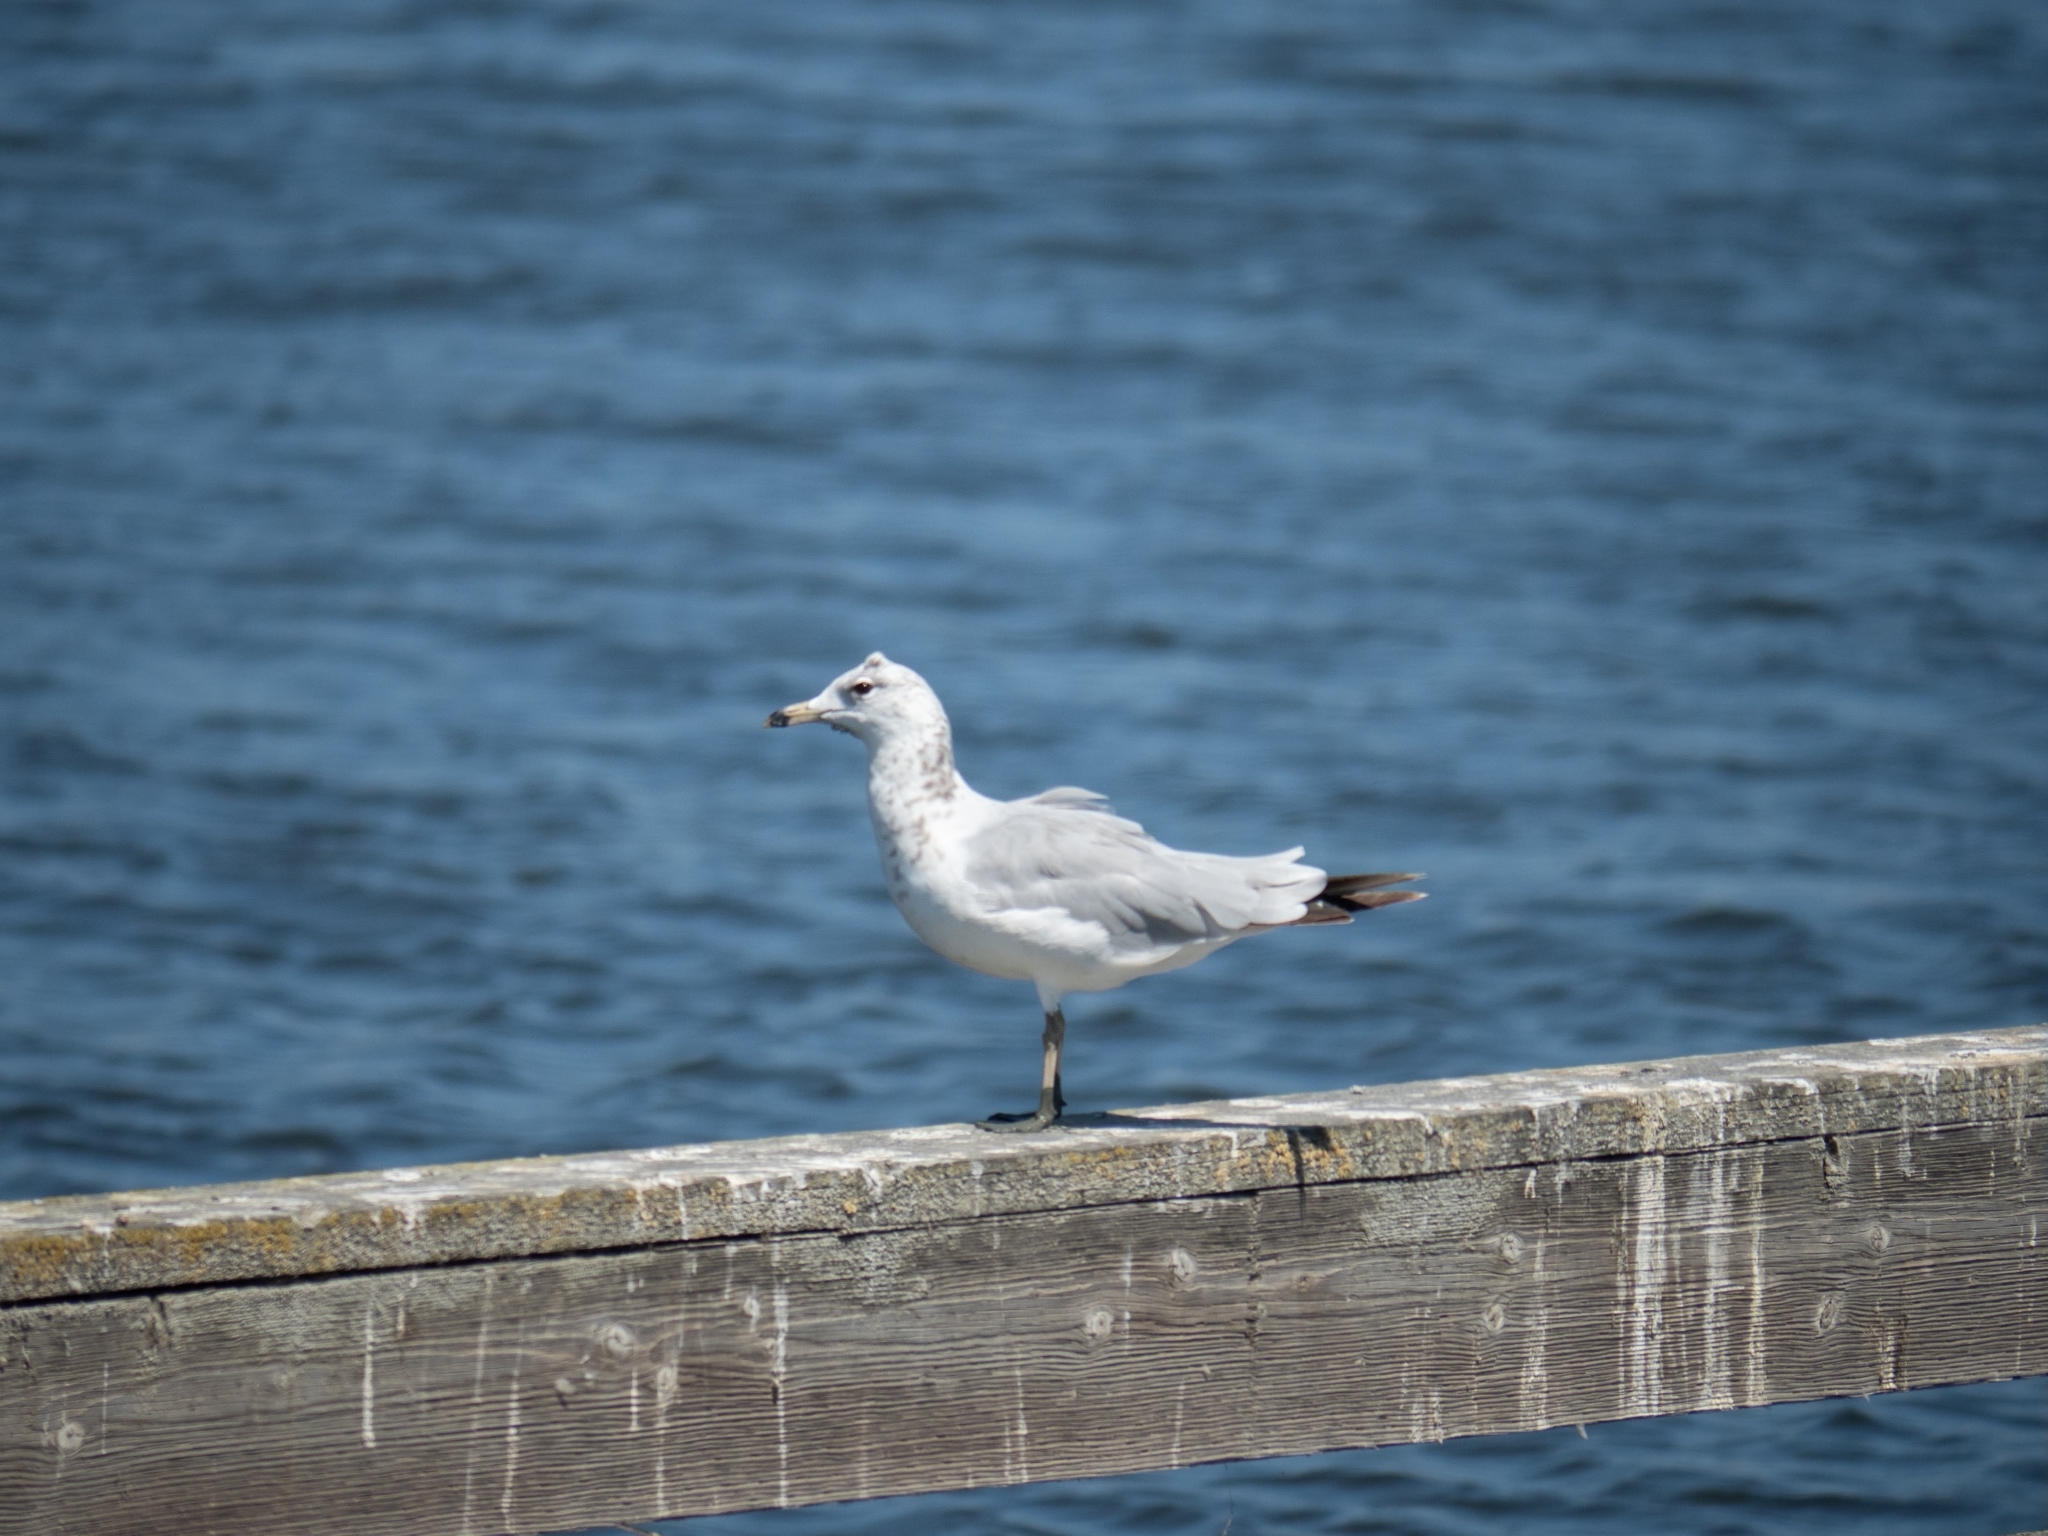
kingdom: Animalia
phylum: Chordata
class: Aves
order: Charadriiformes
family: Laridae
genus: Larus
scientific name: Larus delawarensis
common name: Ring-billed gull
